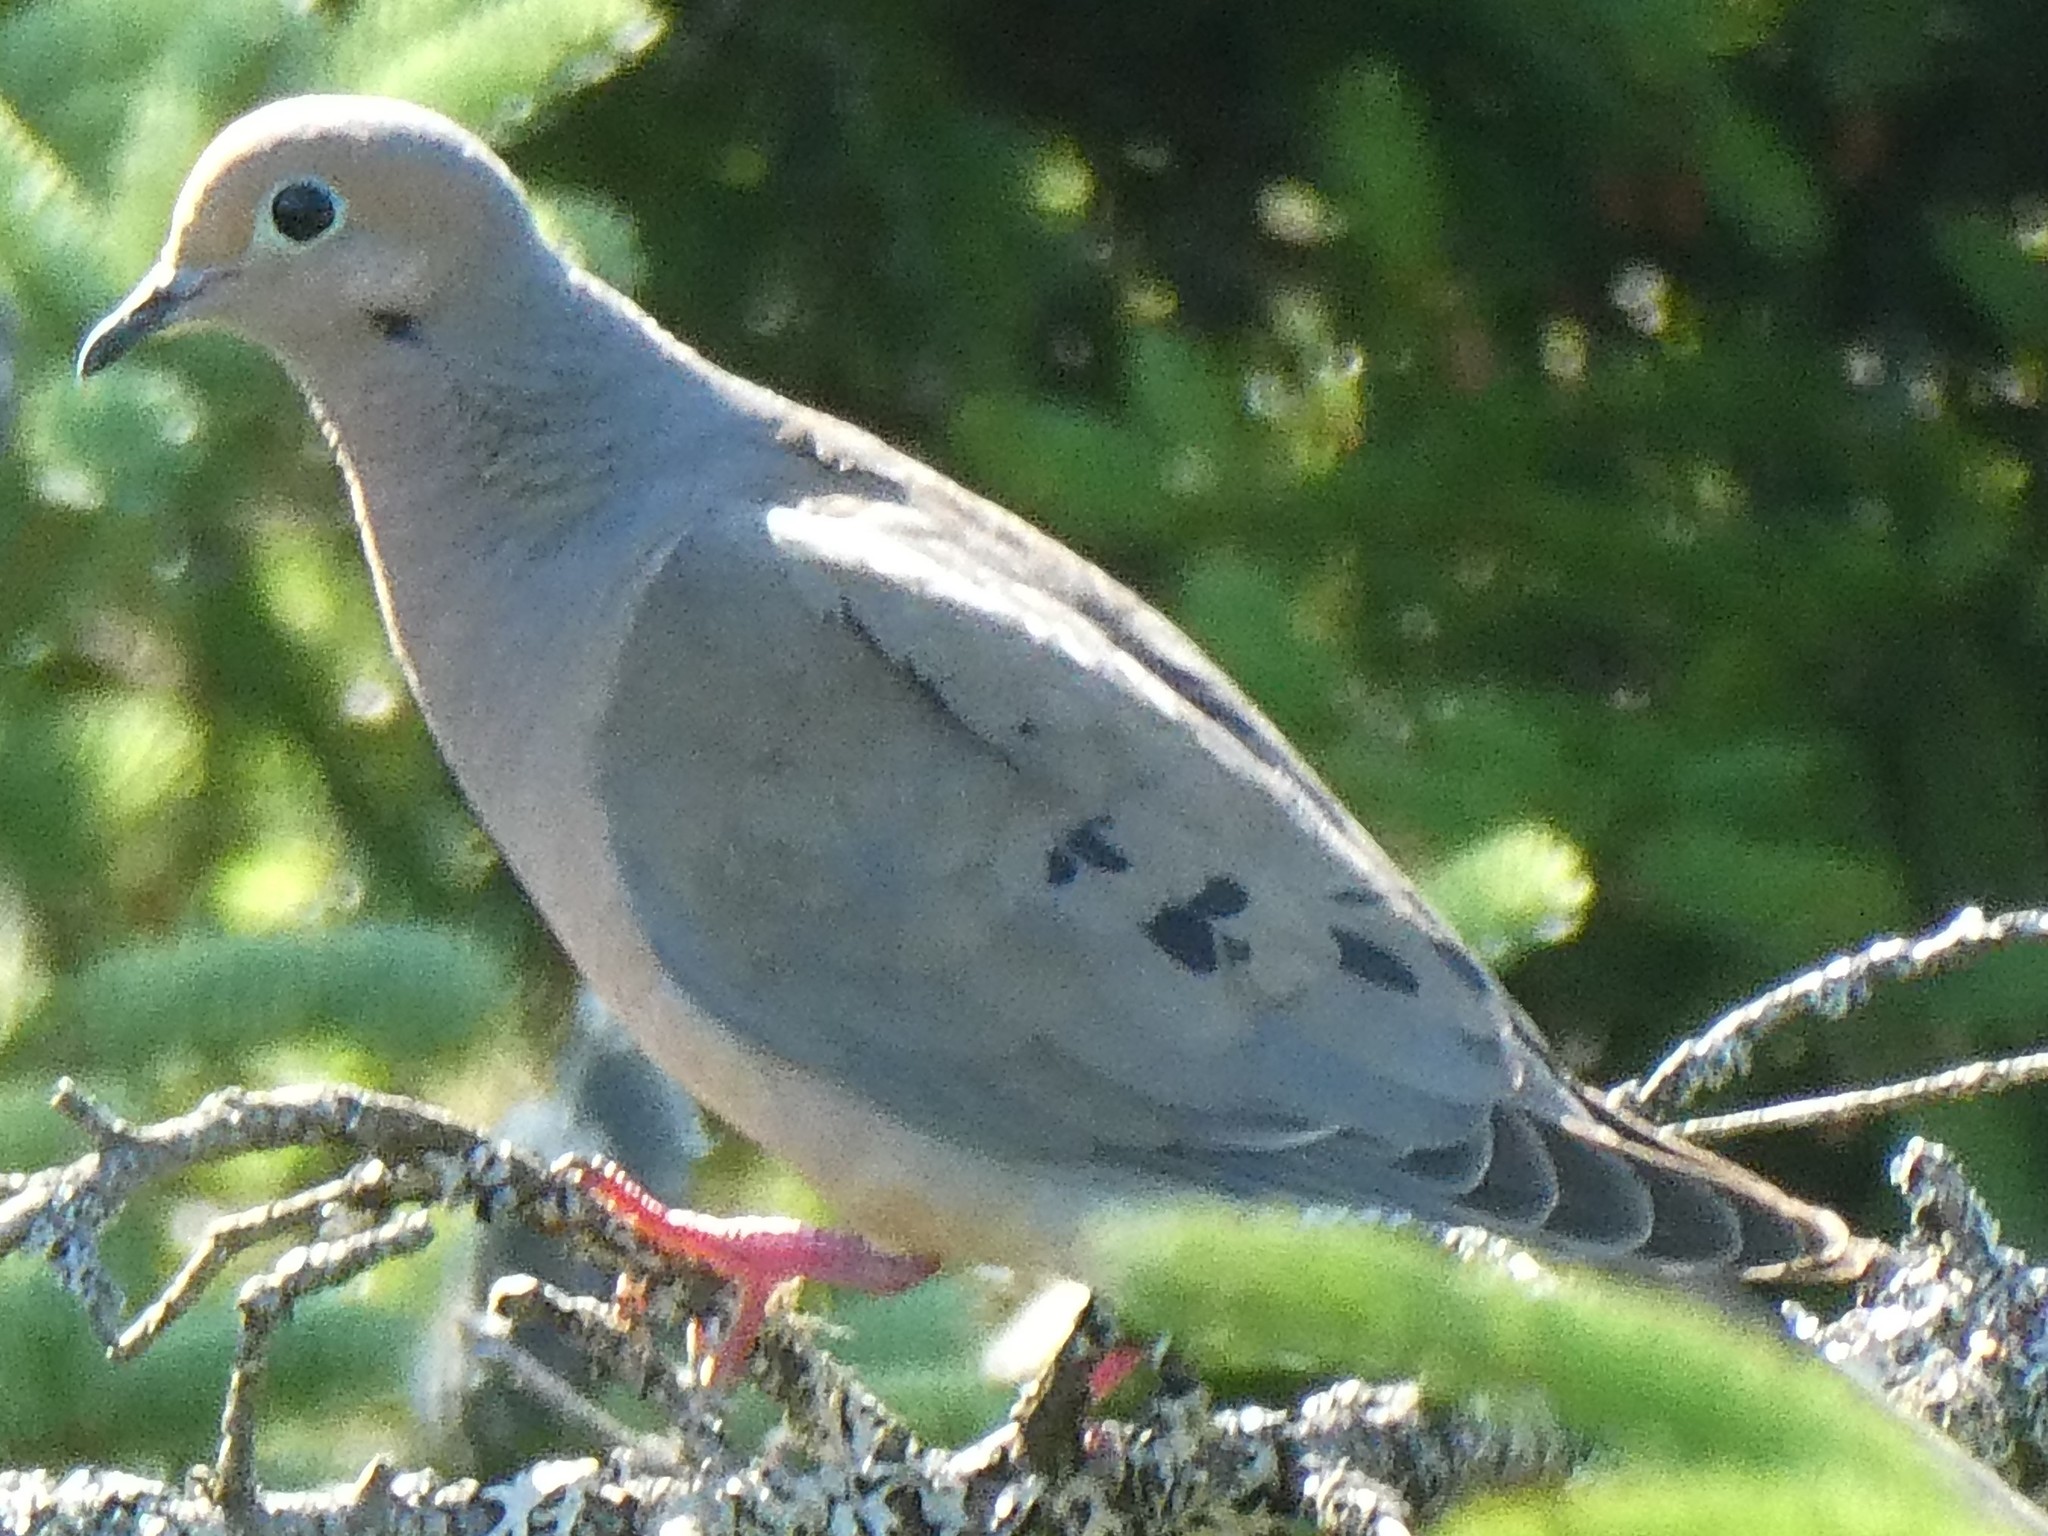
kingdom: Animalia
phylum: Chordata
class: Aves
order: Columbiformes
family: Columbidae
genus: Zenaida
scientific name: Zenaida macroura
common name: Mourning dove
